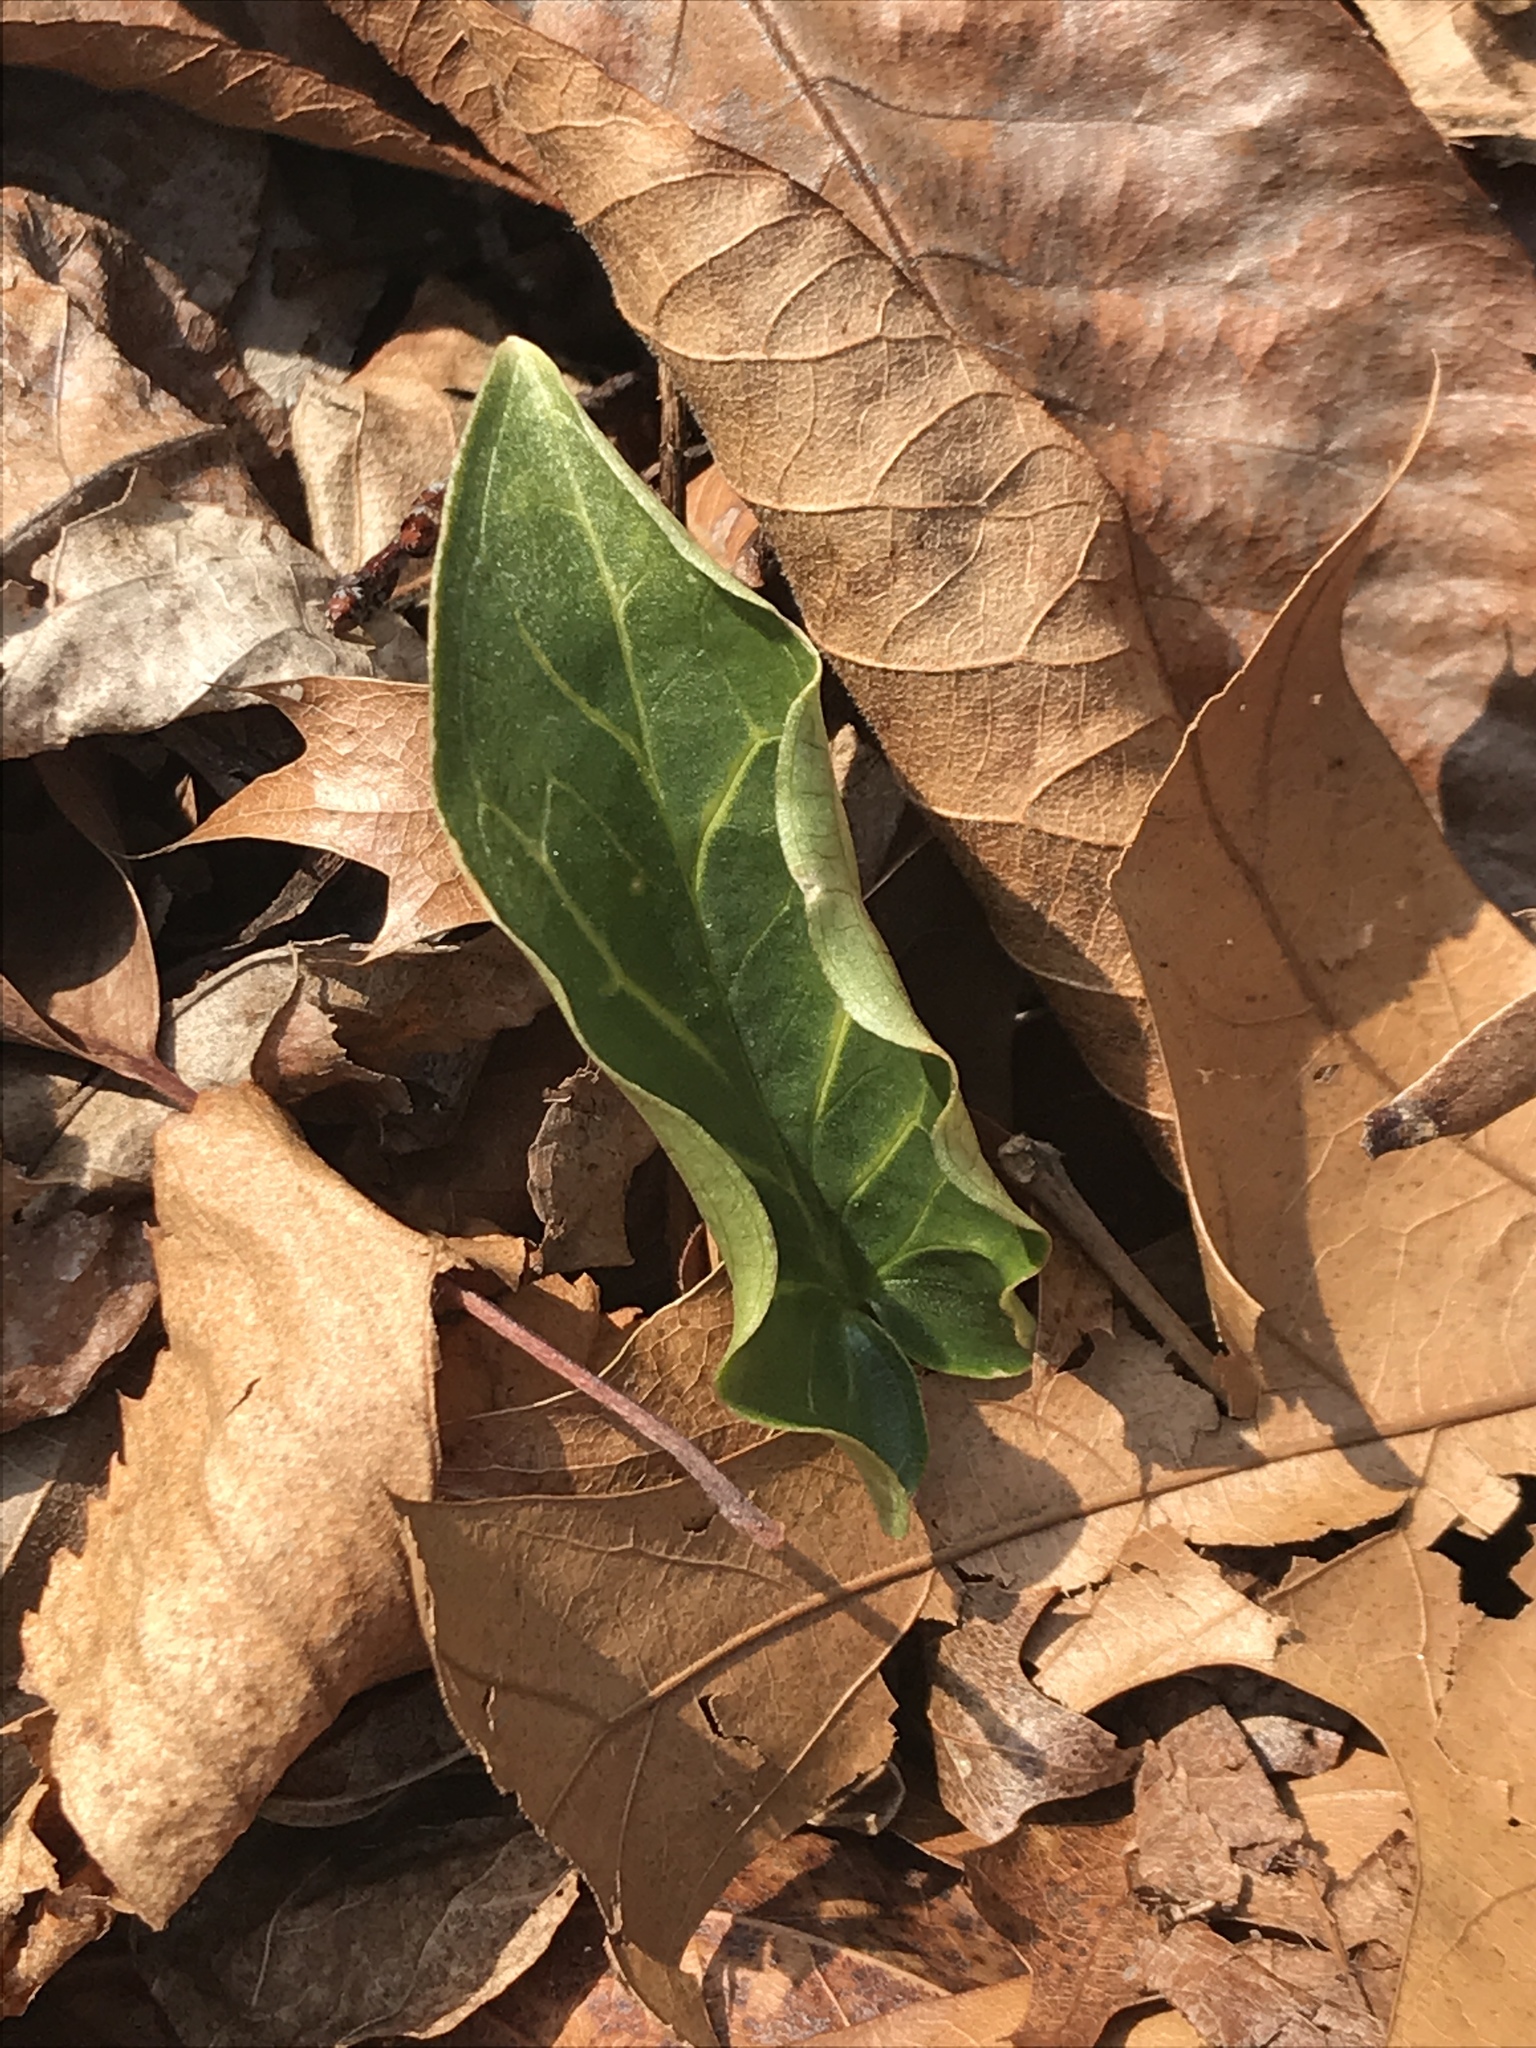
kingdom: Plantae
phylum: Tracheophyta
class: Liliopsida
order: Alismatales
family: Araceae
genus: Arum
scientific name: Arum italicum
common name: Italian lords-and-ladies
